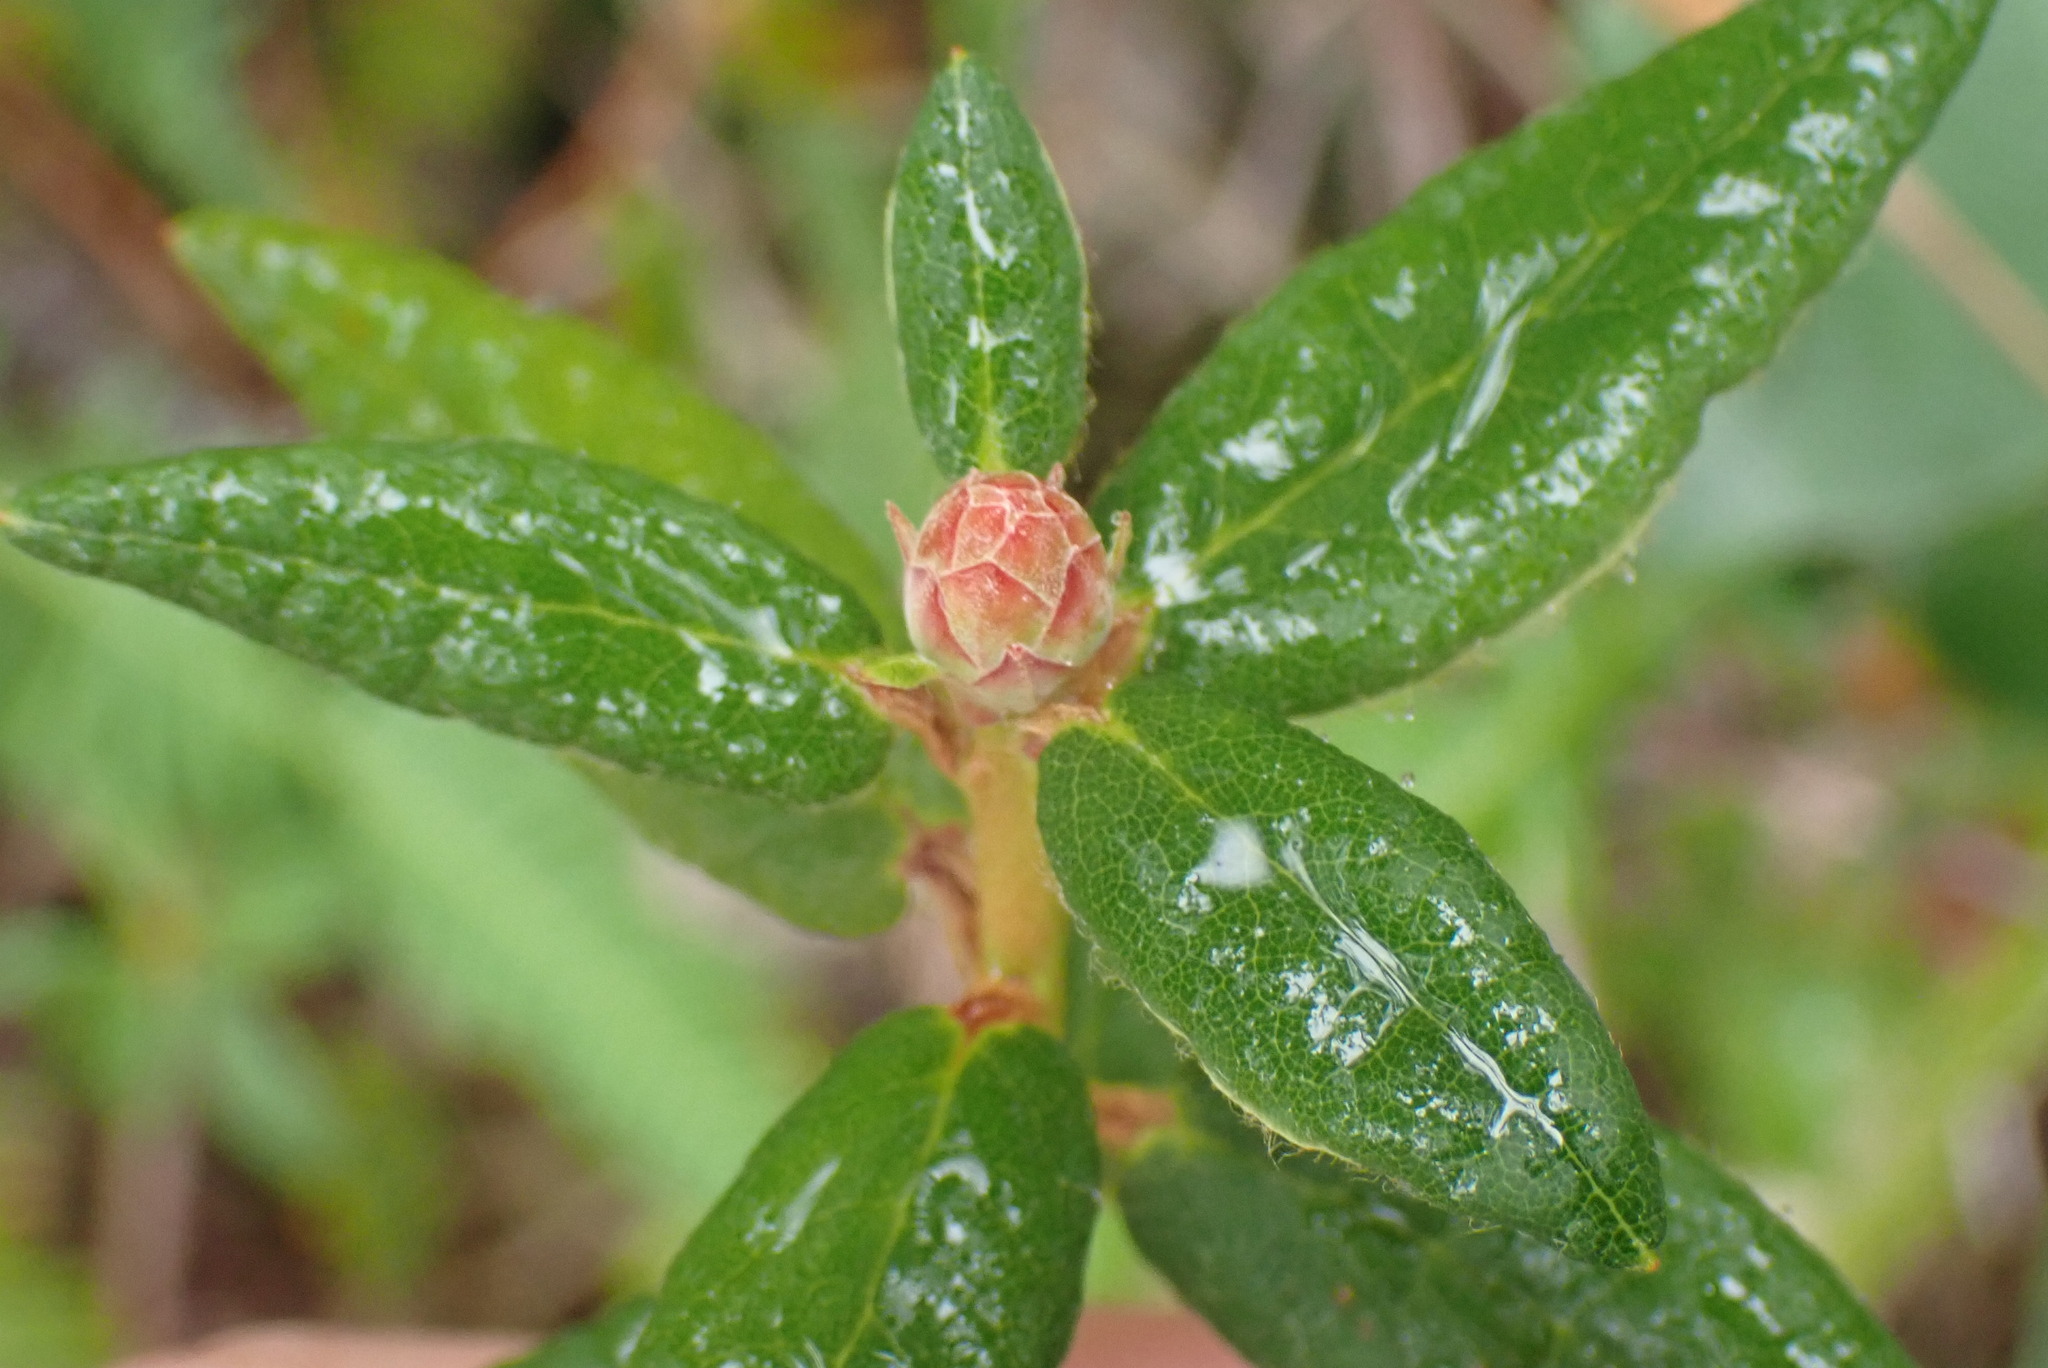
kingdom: Plantae
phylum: Tracheophyta
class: Magnoliopsida
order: Ericales
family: Ericaceae
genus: Rhododendron
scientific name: Rhododendron groenlandicum
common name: Bog labrador tea
